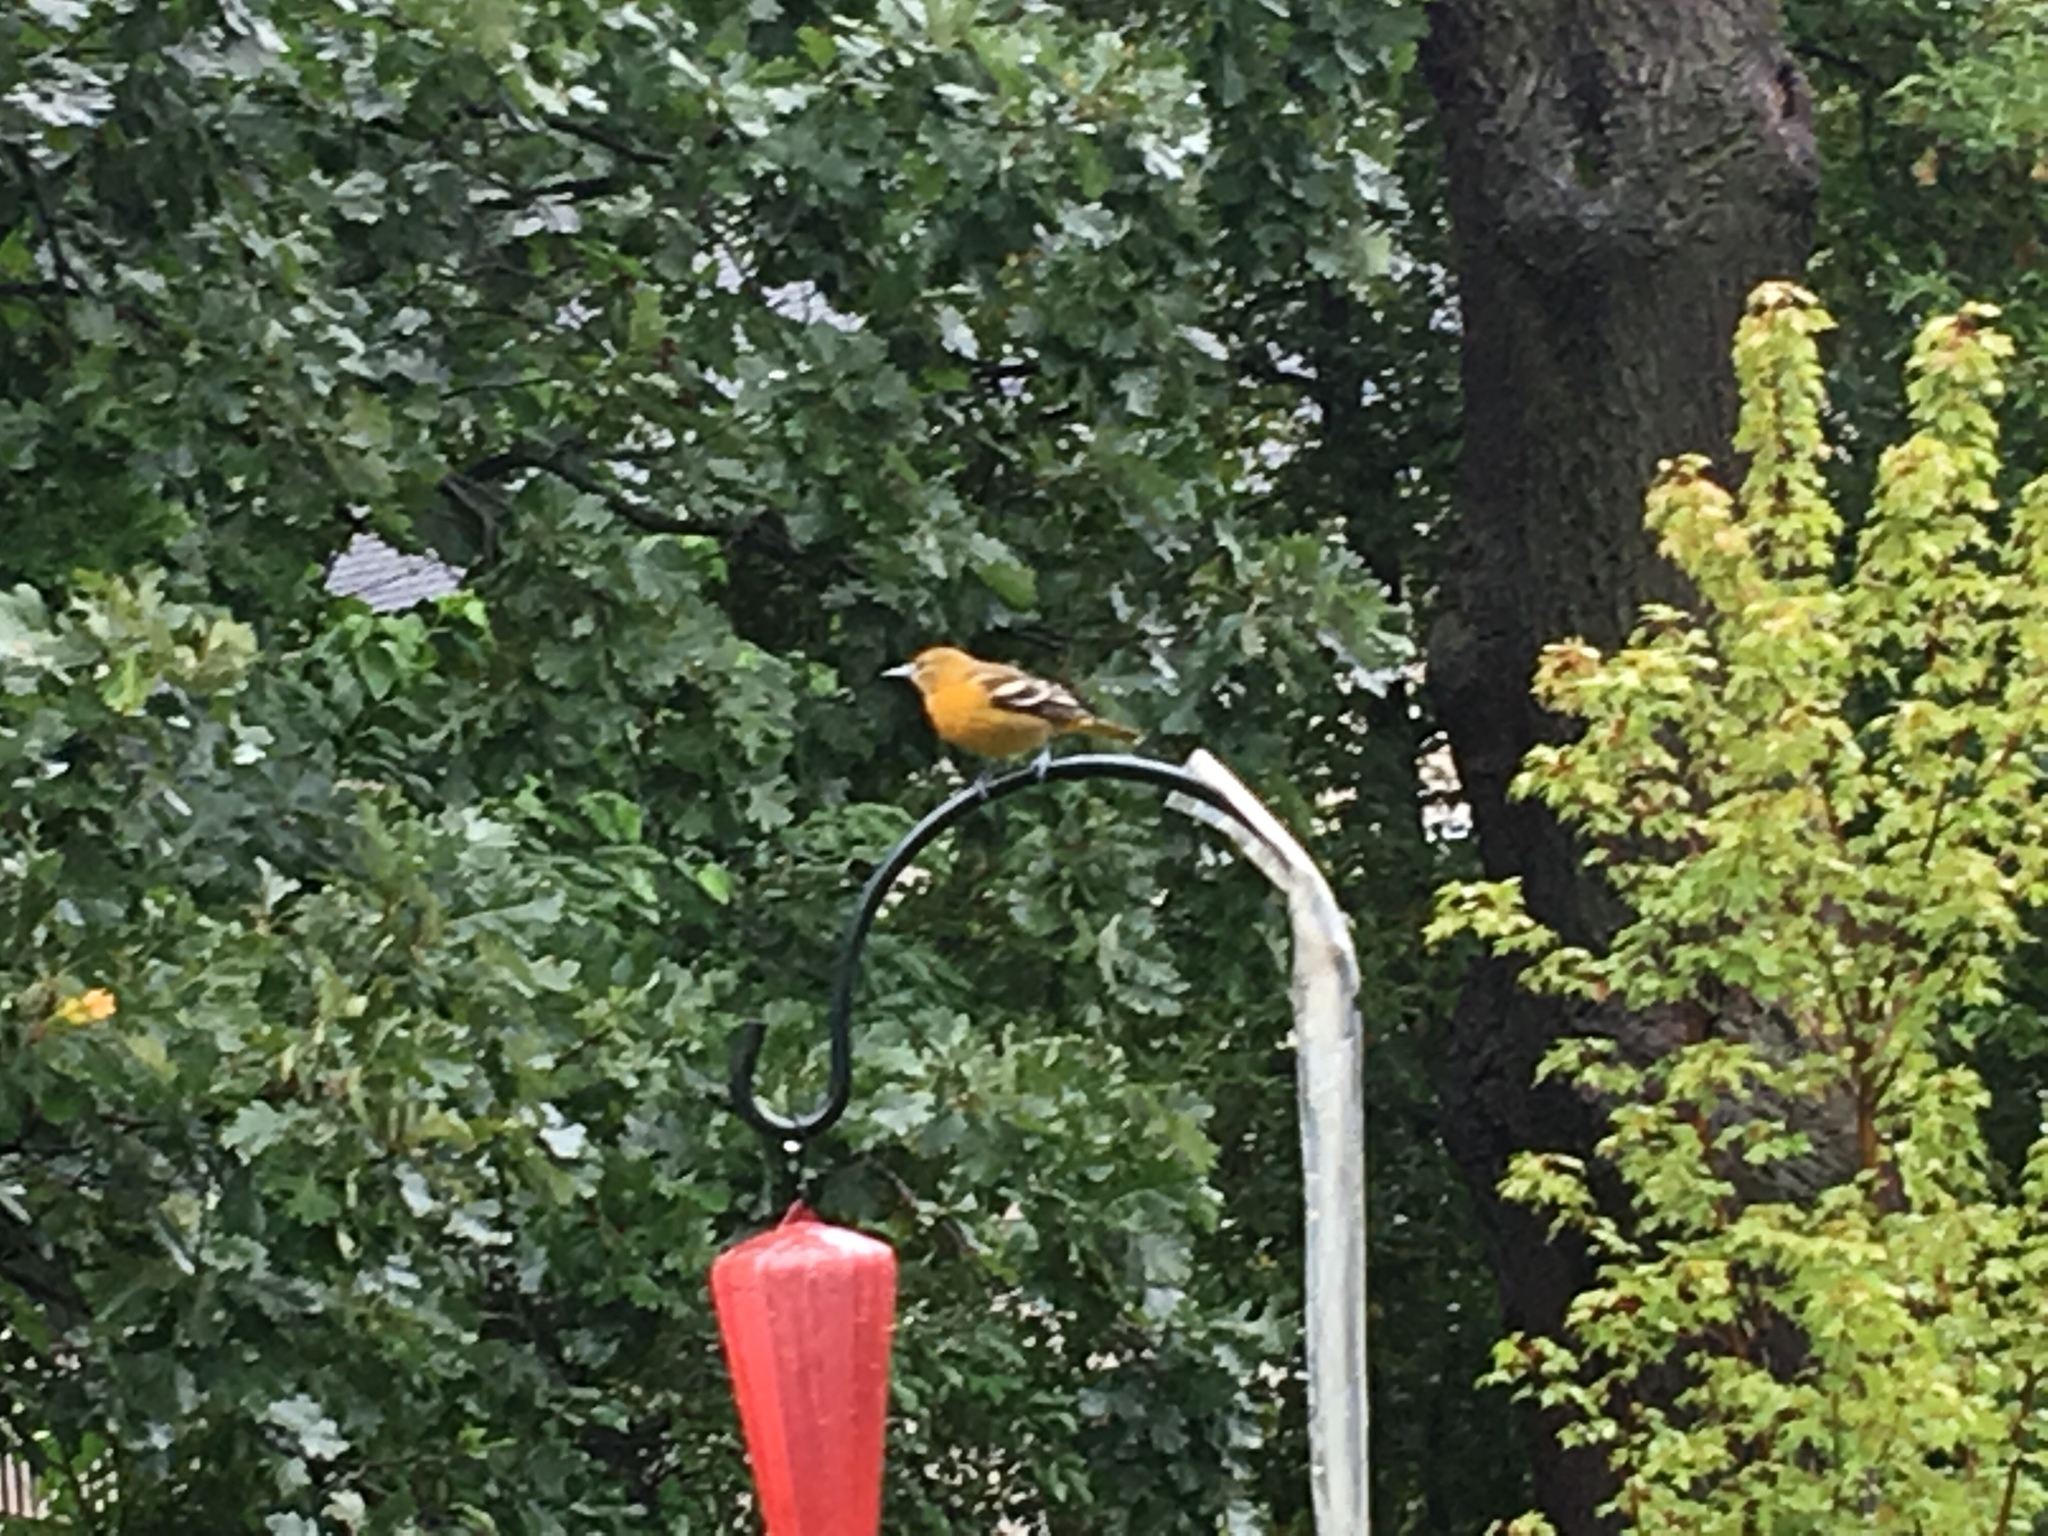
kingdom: Animalia
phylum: Chordata
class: Aves
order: Passeriformes
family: Icteridae
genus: Icterus
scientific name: Icterus galbula
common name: Baltimore oriole
